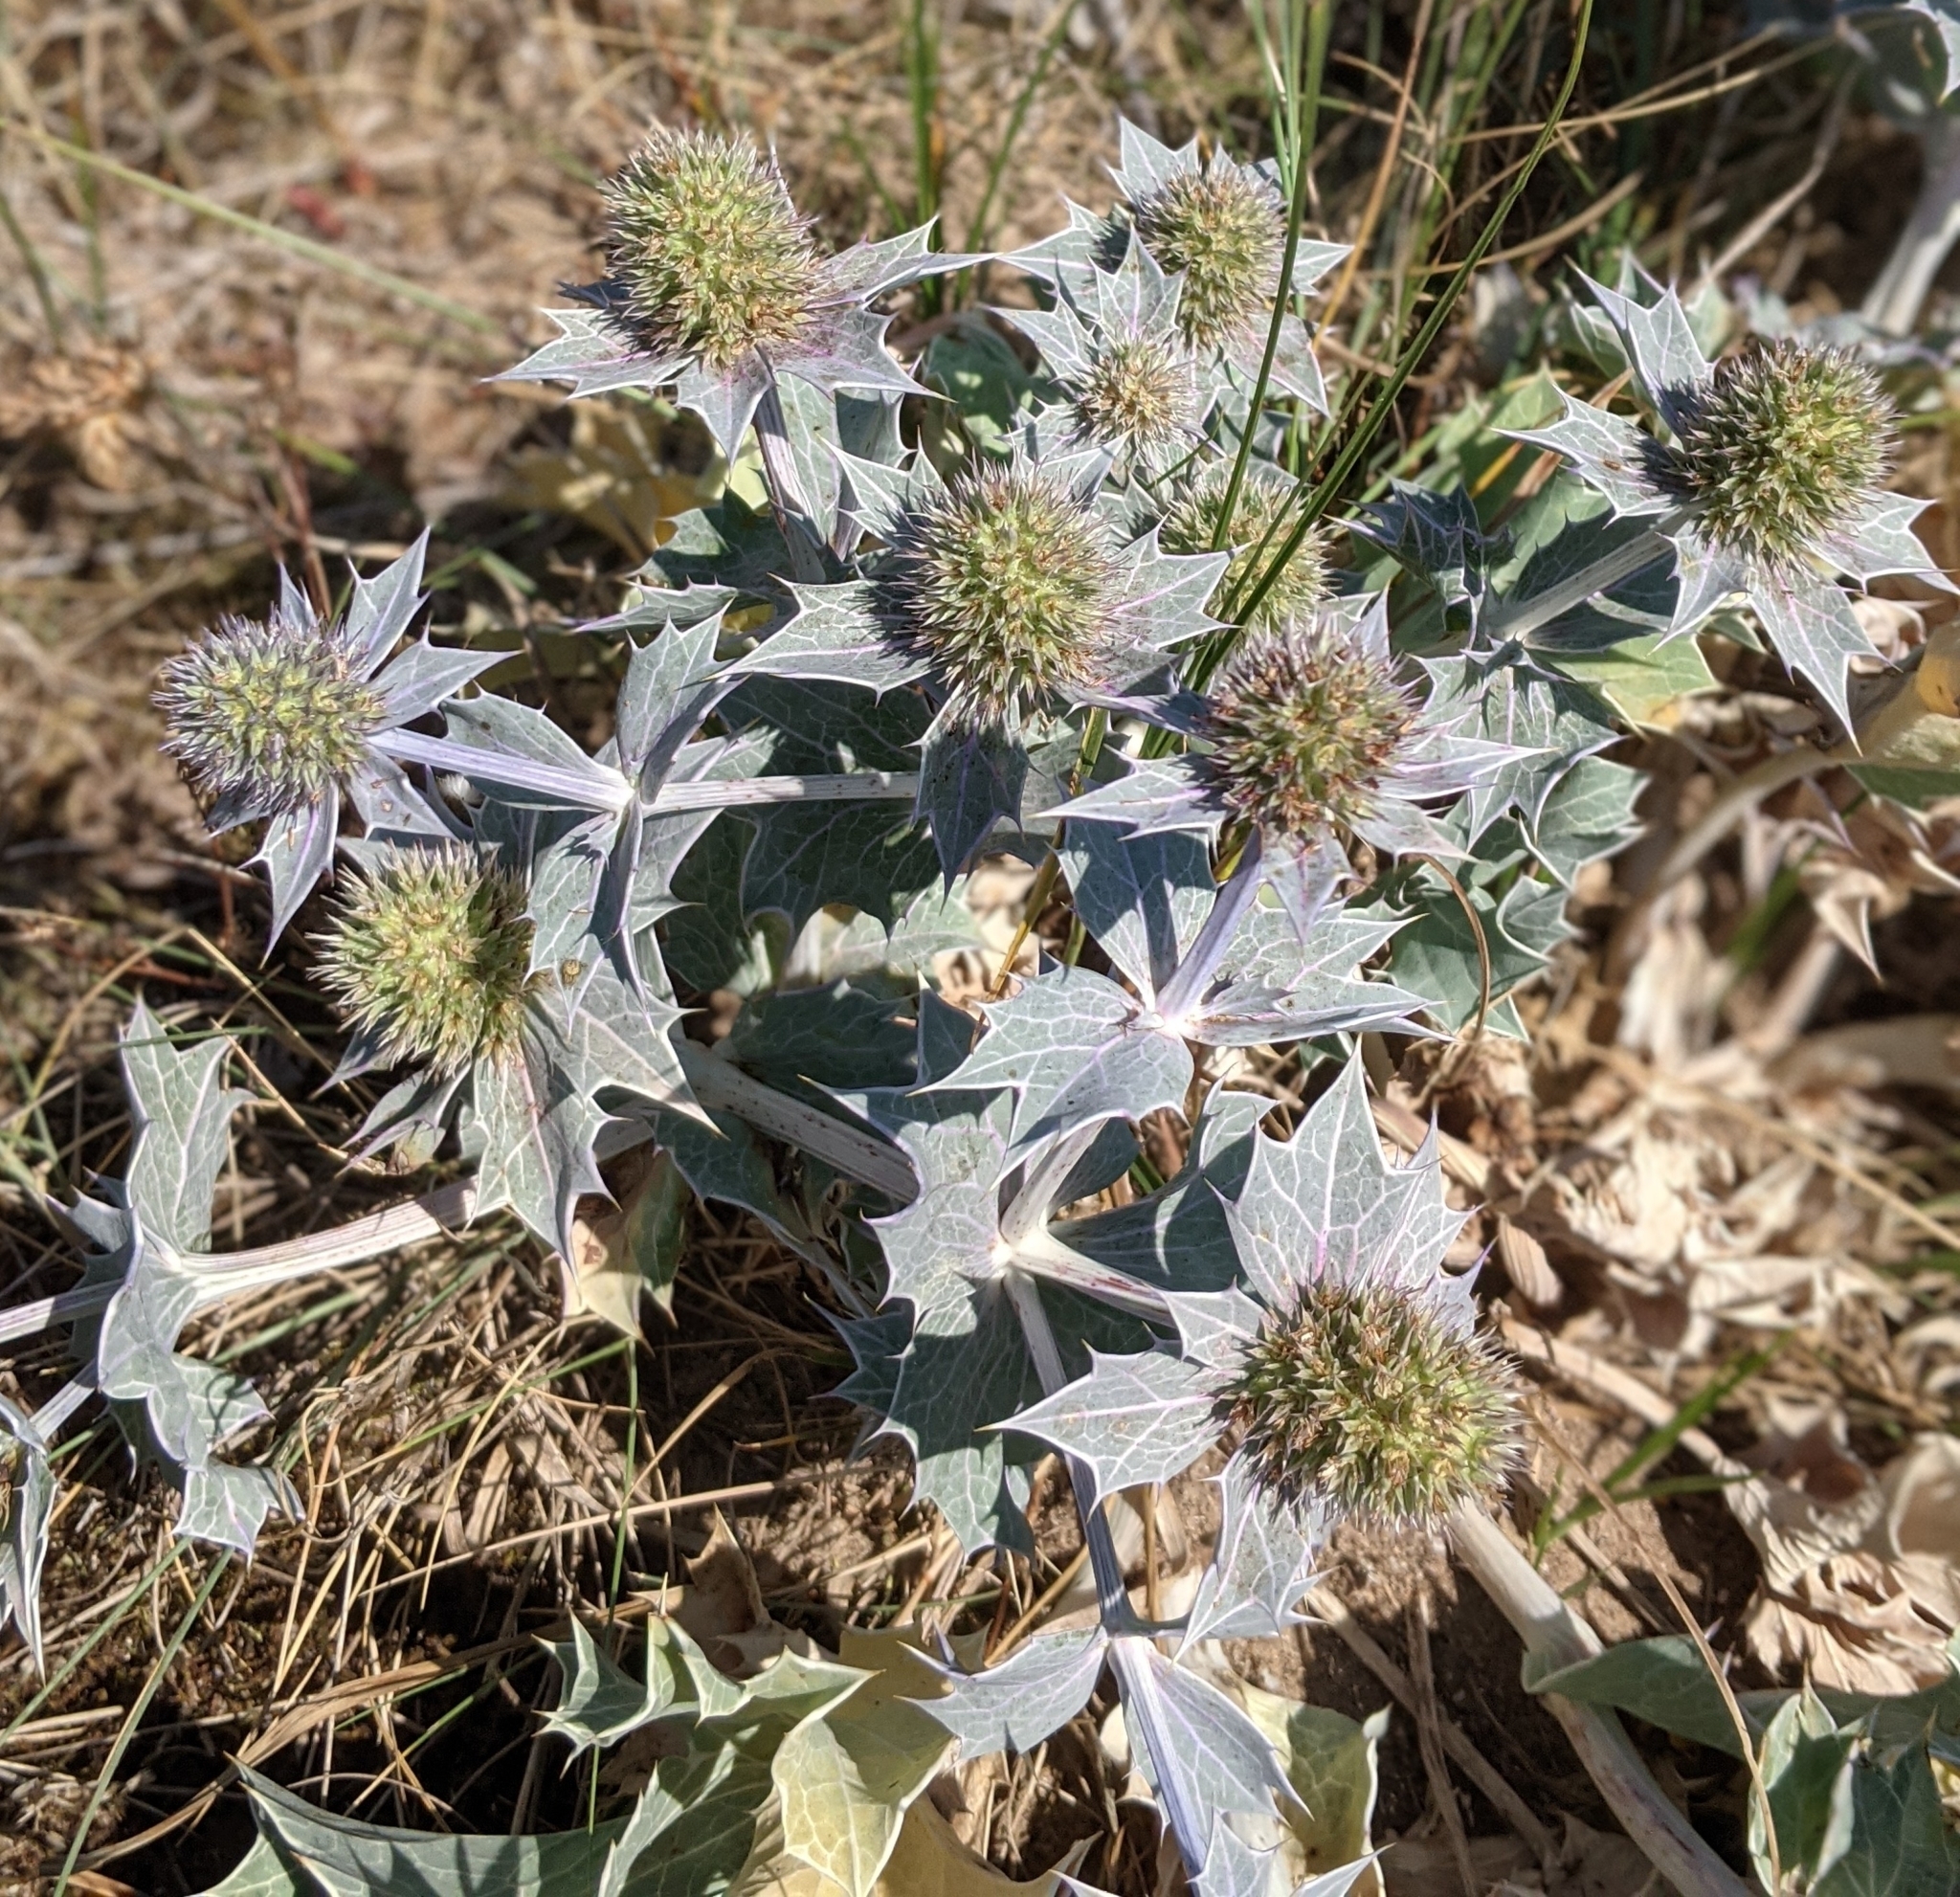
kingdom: Plantae
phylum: Tracheophyta
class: Magnoliopsida
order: Apiales
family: Apiaceae
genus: Eryngium
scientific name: Eryngium maritimum
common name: Sea-holly
